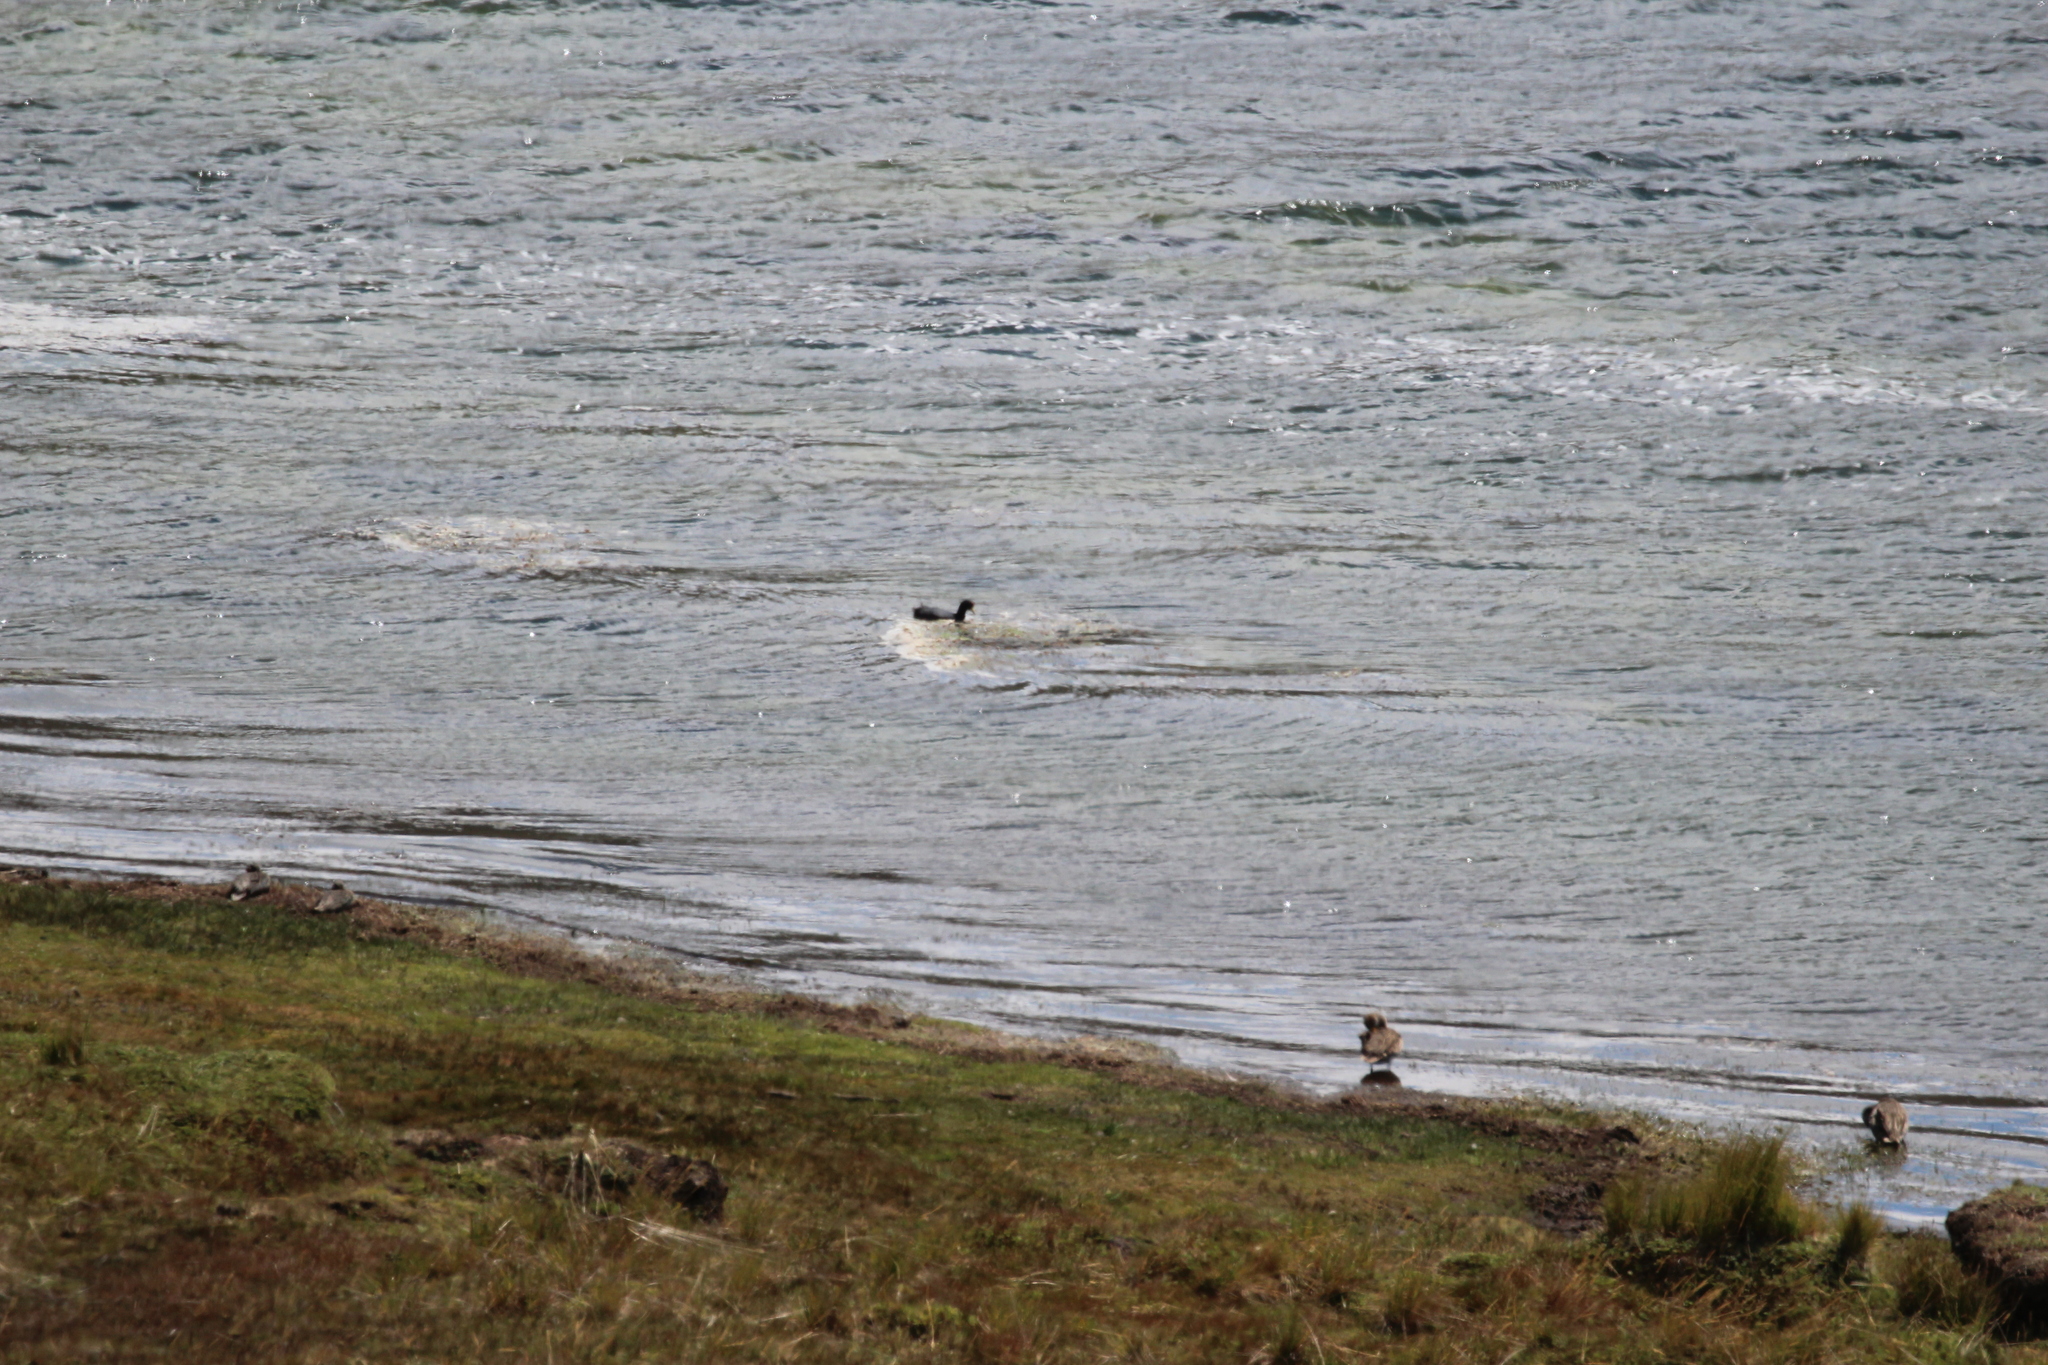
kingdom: Animalia
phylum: Chordata
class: Aves
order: Gruiformes
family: Rallidae
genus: Fulica
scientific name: Fulica ardesiaca
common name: Andean coot
